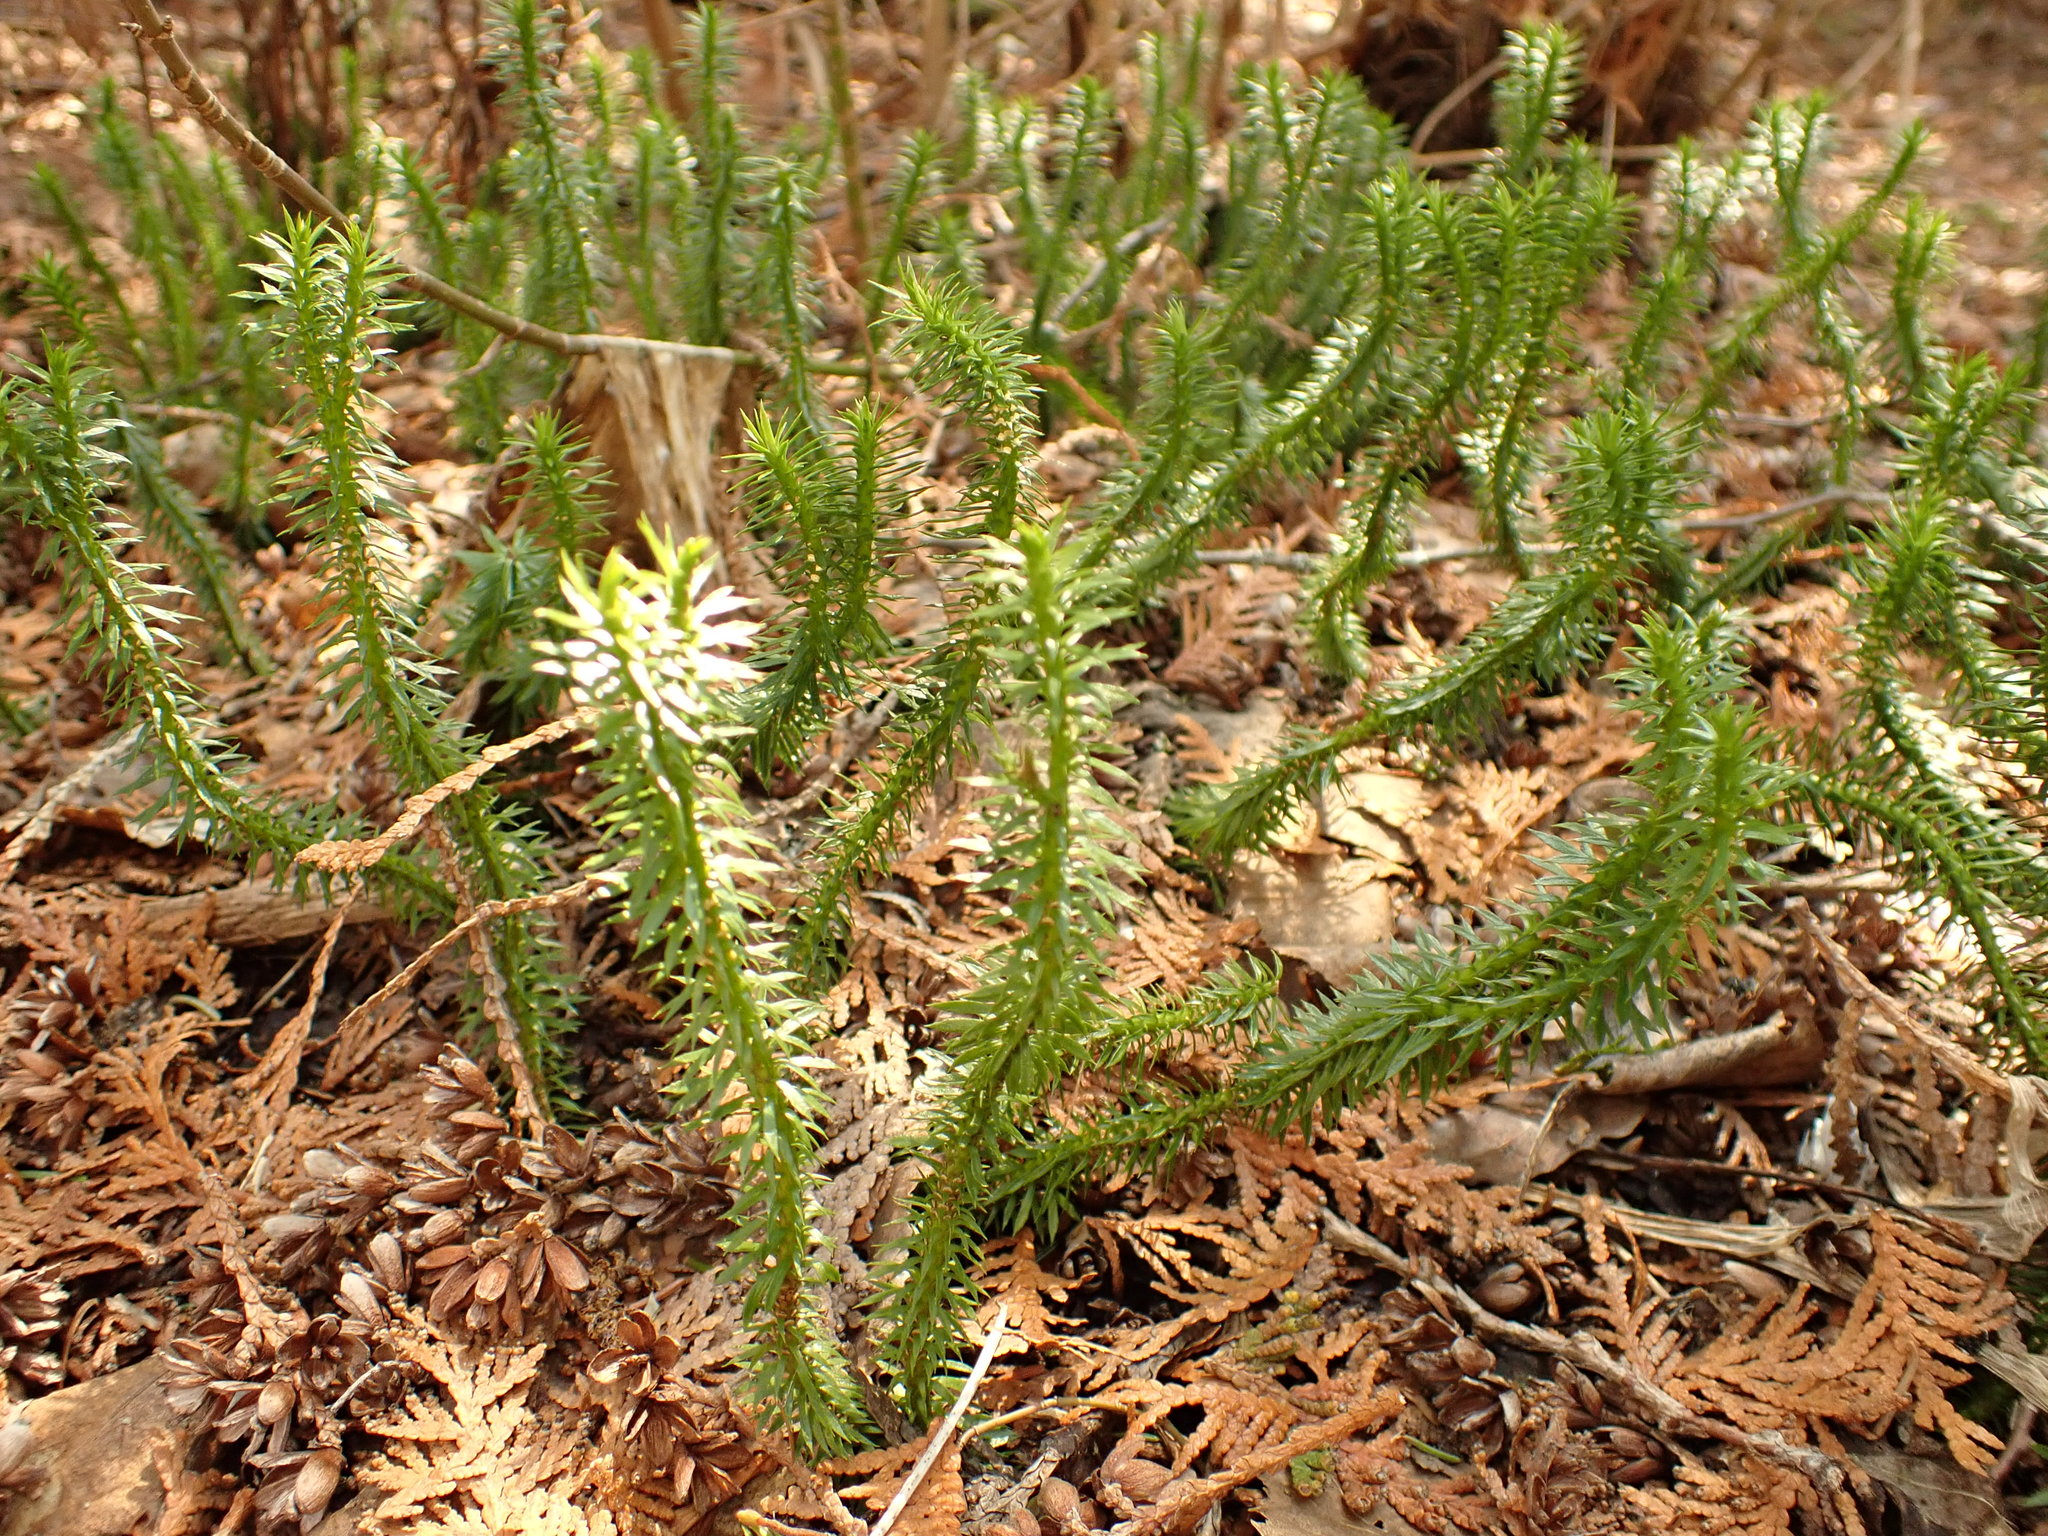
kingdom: Plantae
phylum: Tracheophyta
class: Lycopodiopsida
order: Lycopodiales
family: Lycopodiaceae
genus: Huperzia
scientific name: Huperzia lucidula
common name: Shining clubmoss
